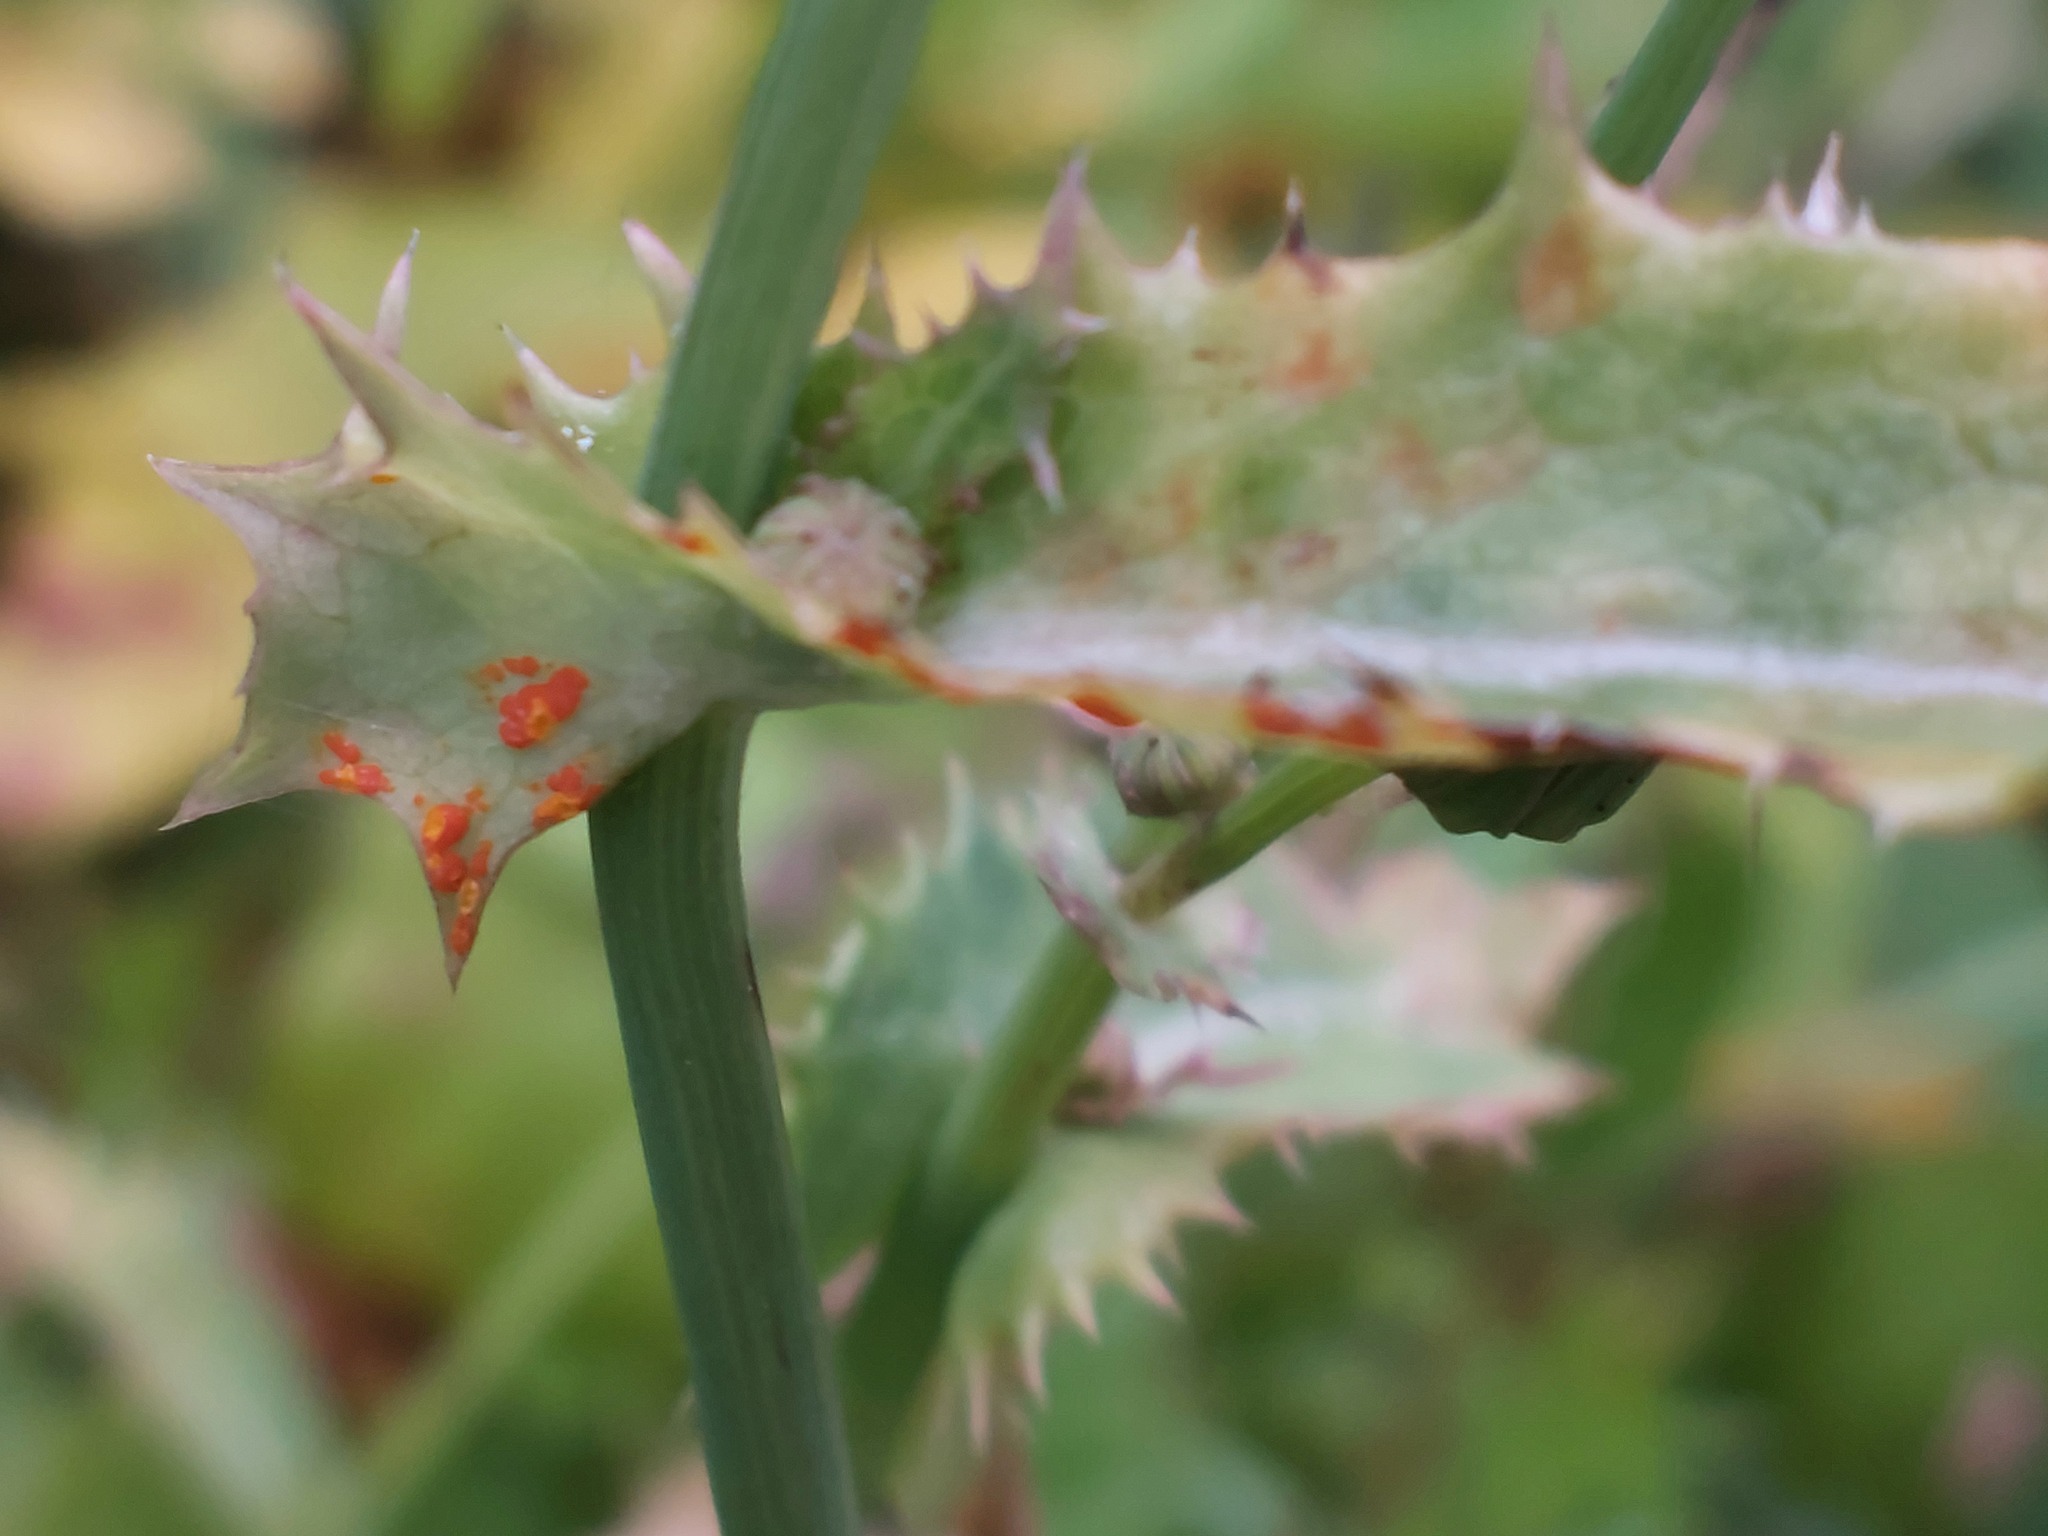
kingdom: Fungi
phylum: Basidiomycota
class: Pucciniomycetes
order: Pucciniales
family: Coleosporiaceae
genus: Coleosporium
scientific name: Coleosporium sonchi
